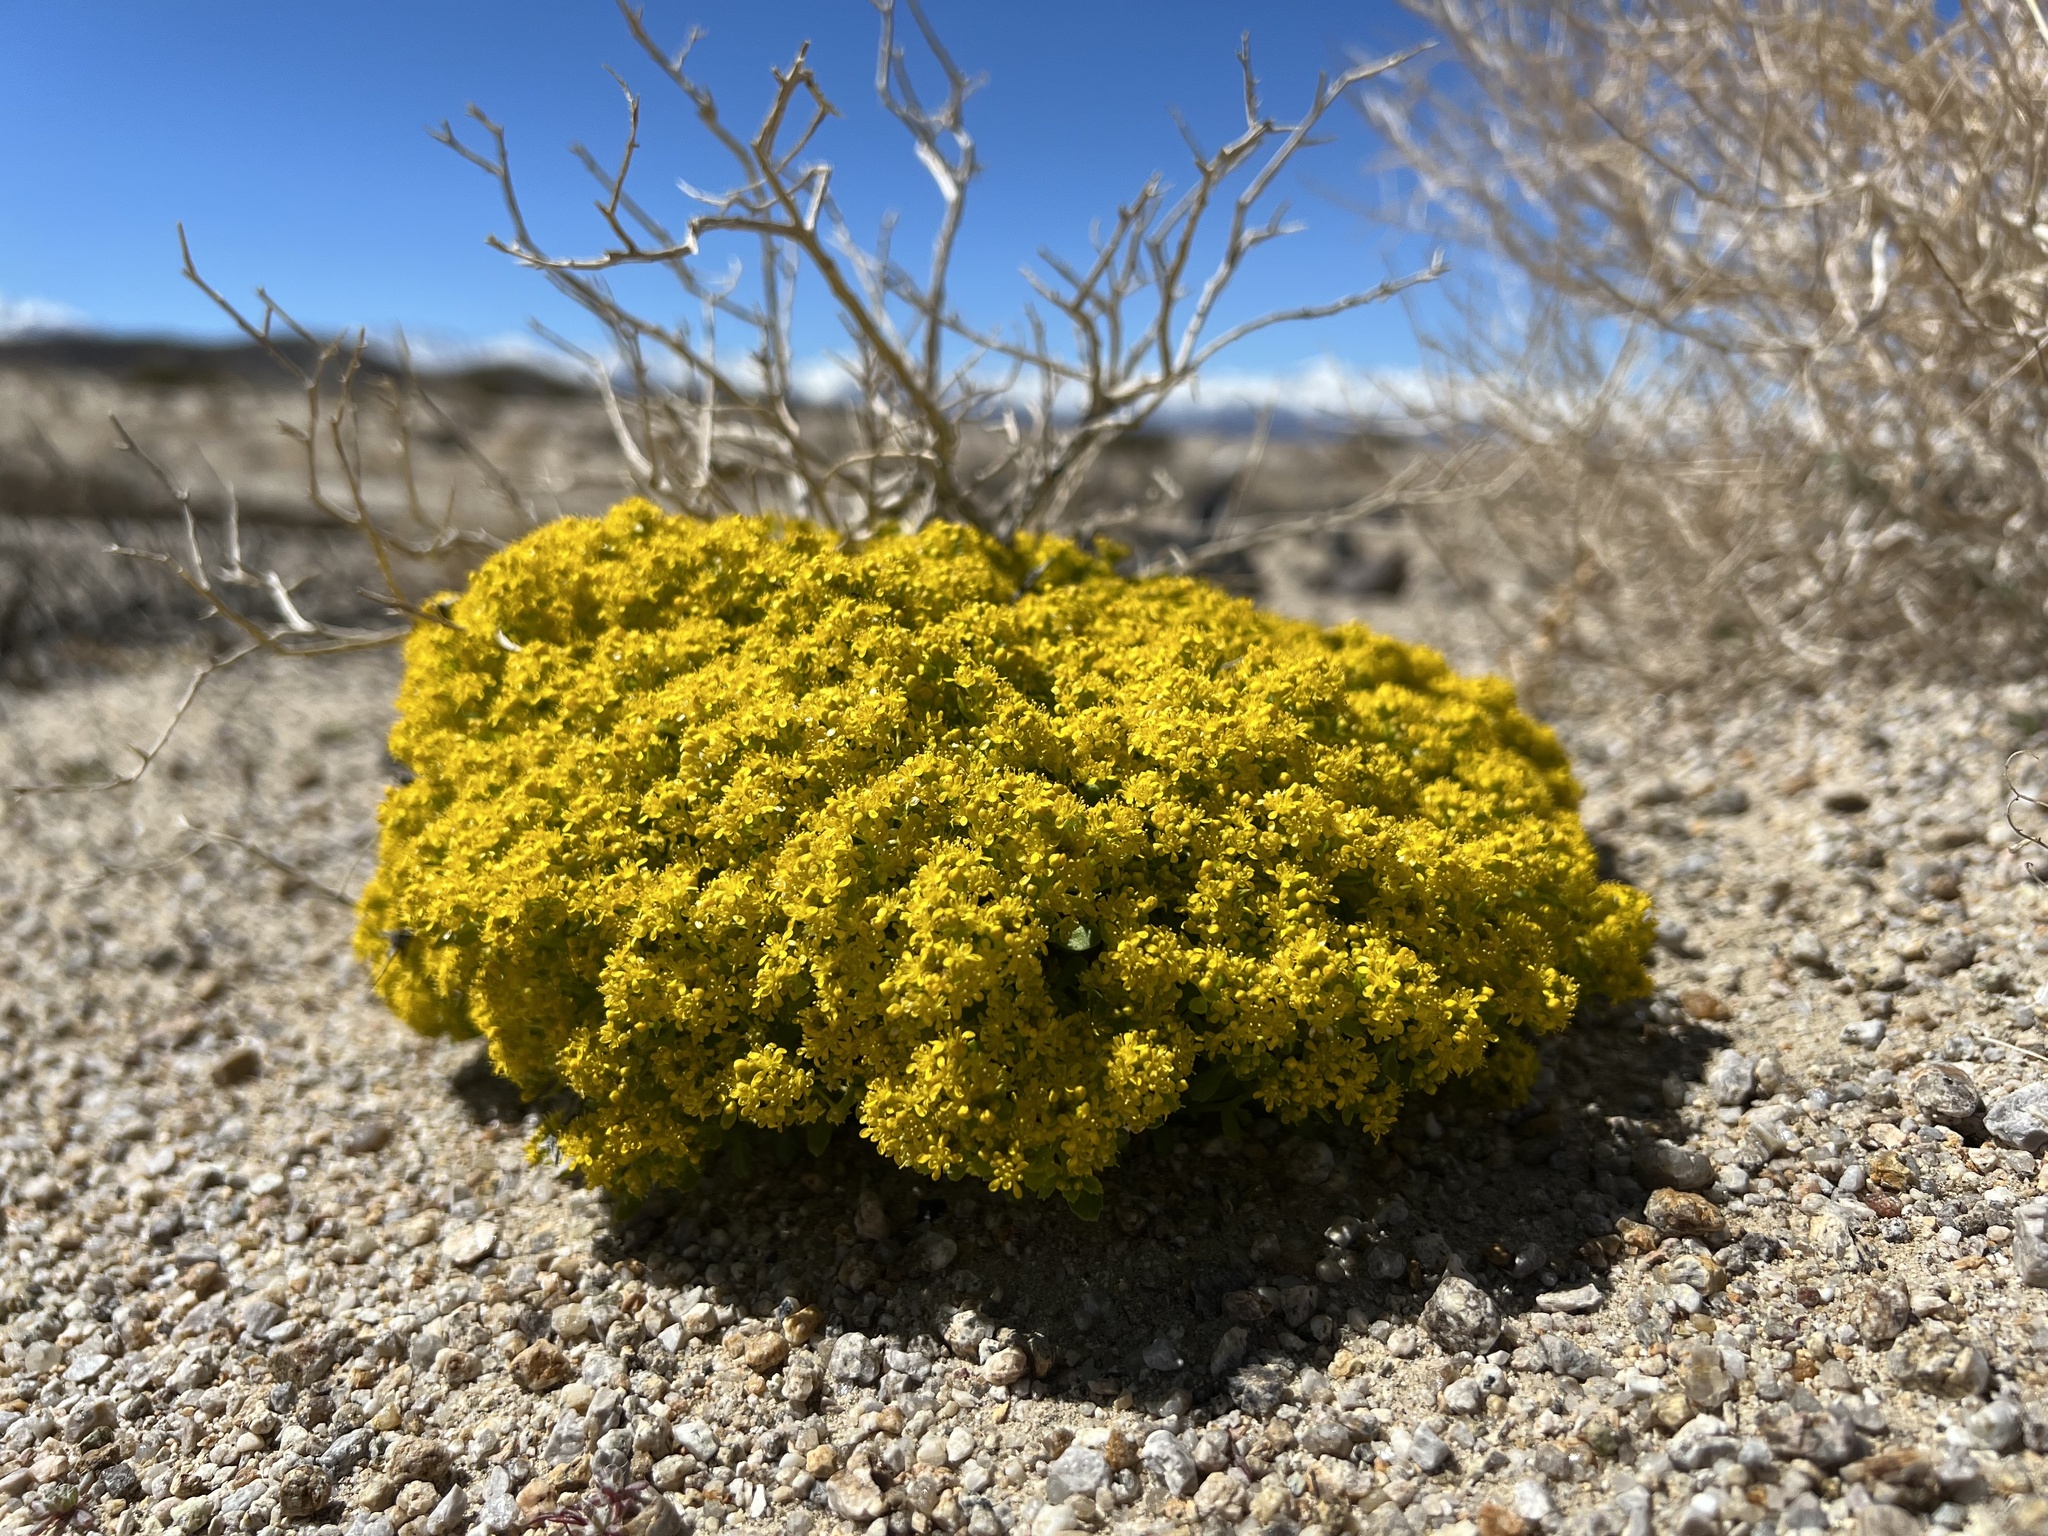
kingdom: Plantae
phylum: Tracheophyta
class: Magnoliopsida
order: Brassicales
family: Brassicaceae
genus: Lepidium
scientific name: Lepidium flavum
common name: Yellow pepperwort
